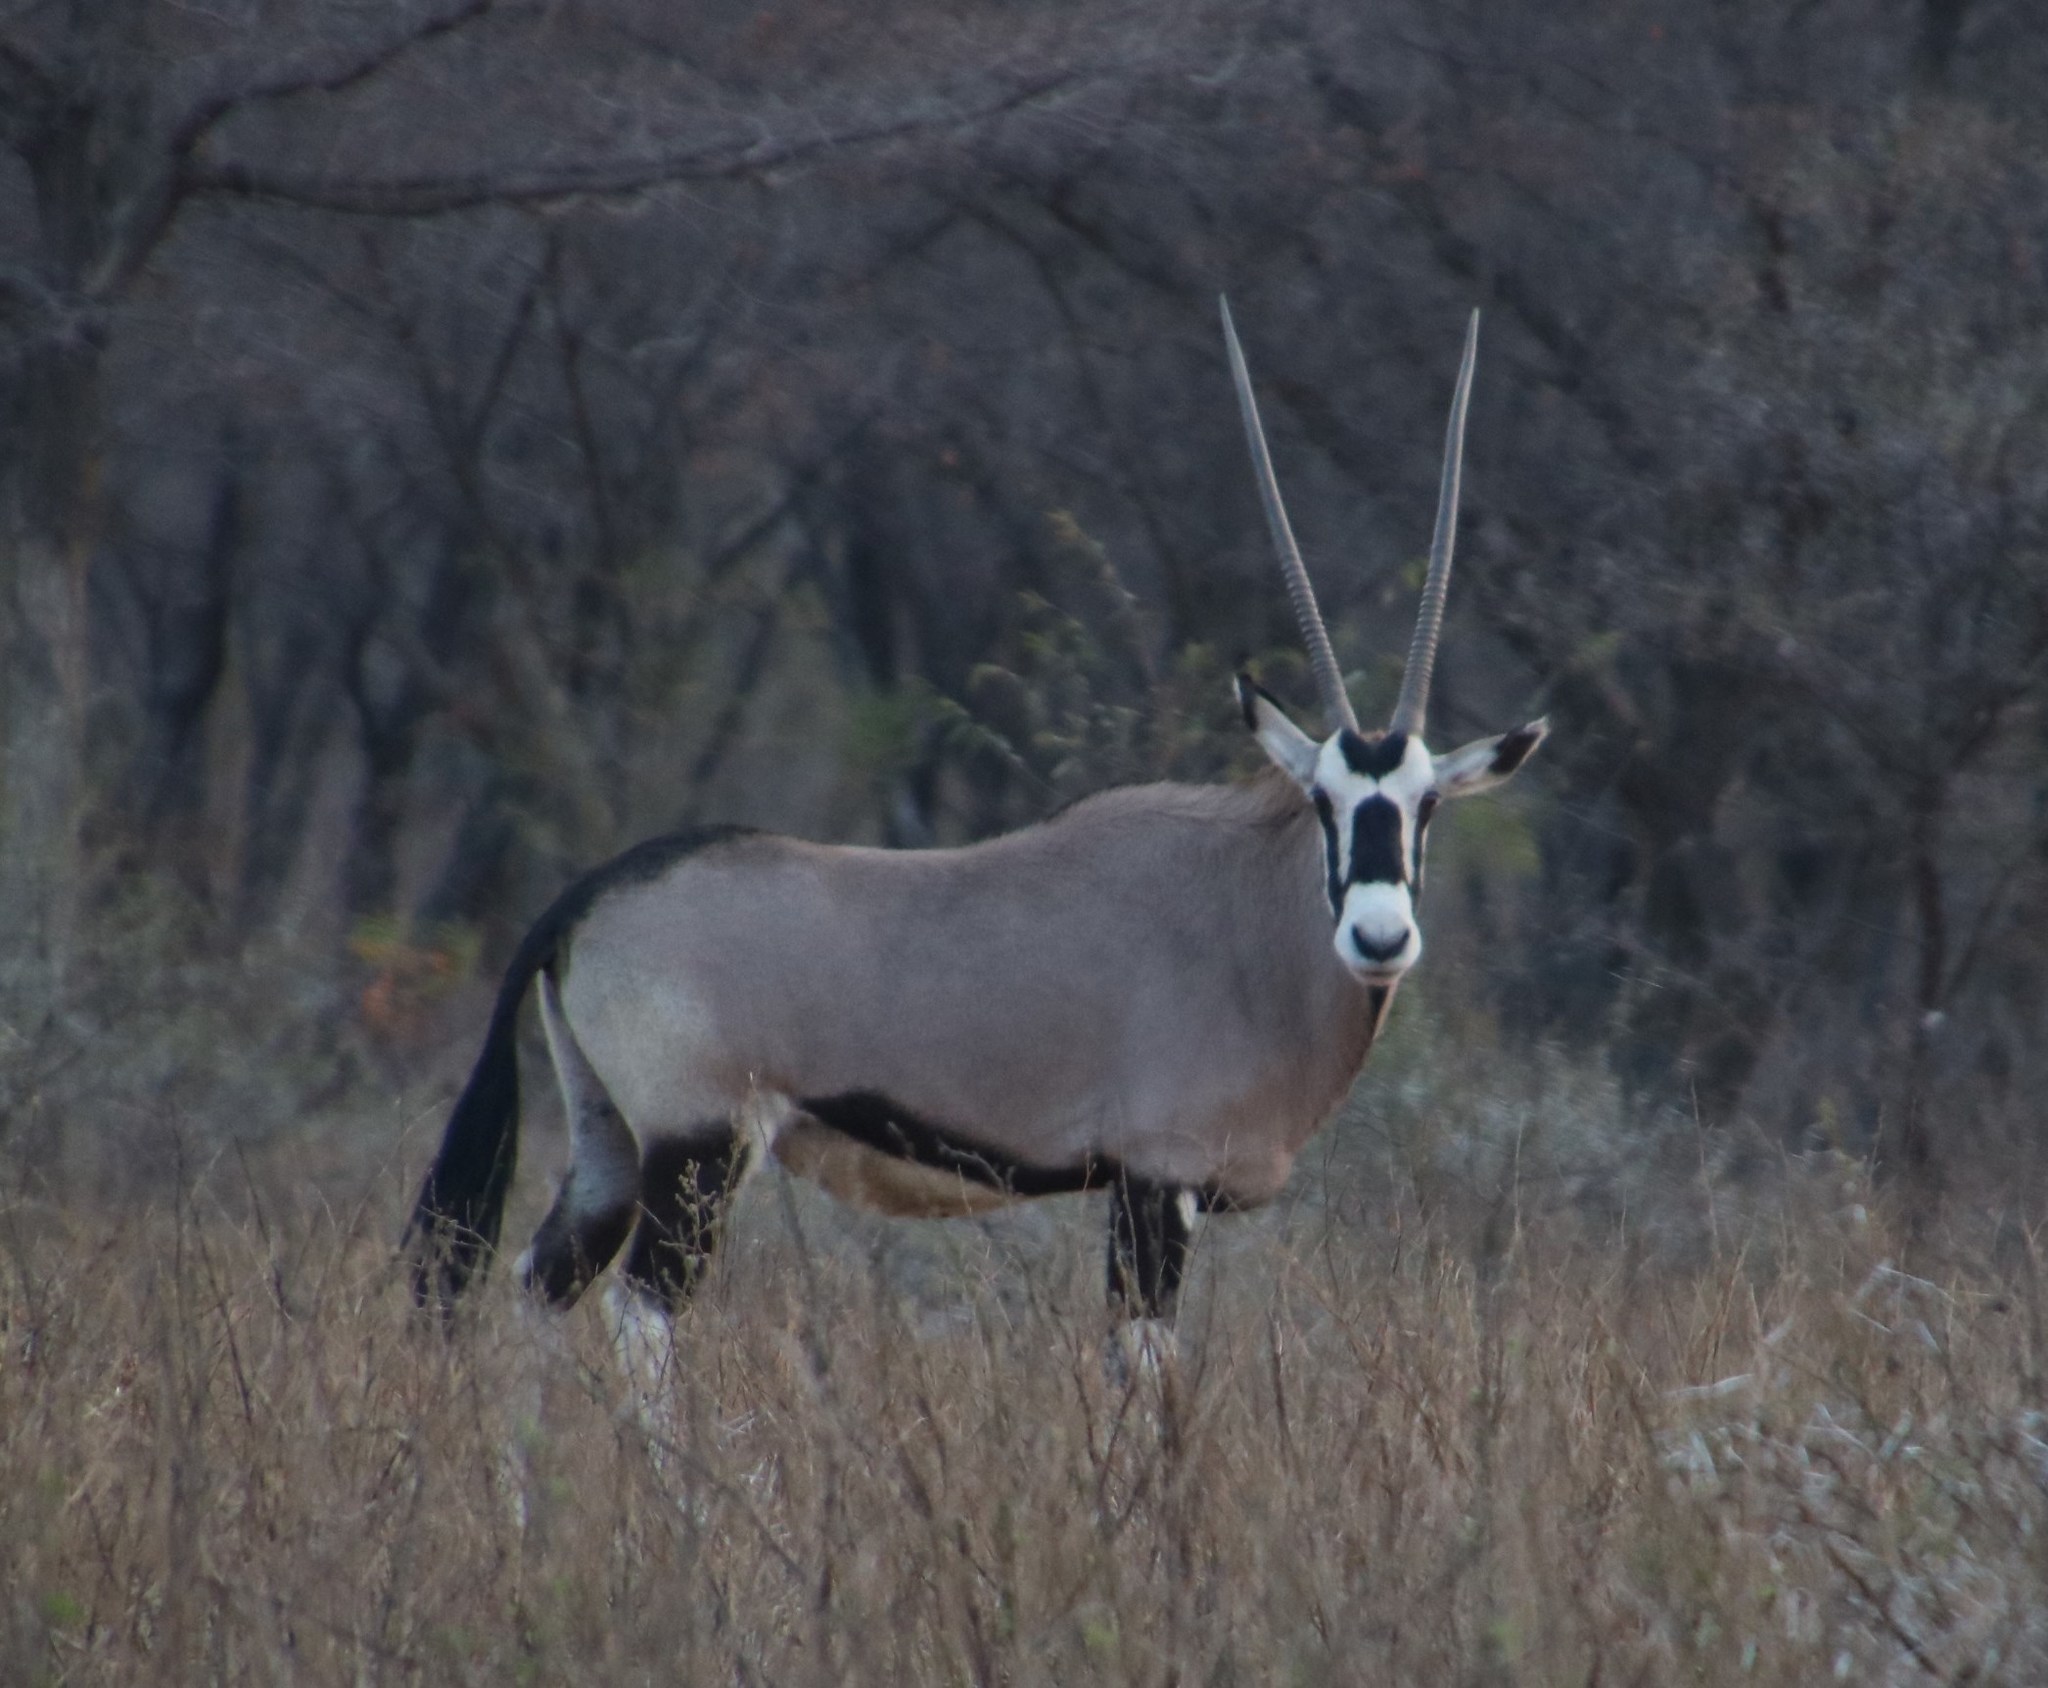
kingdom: Animalia
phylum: Chordata
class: Mammalia
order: Artiodactyla
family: Bovidae
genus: Oryx
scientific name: Oryx gazella
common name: Gemsbok
